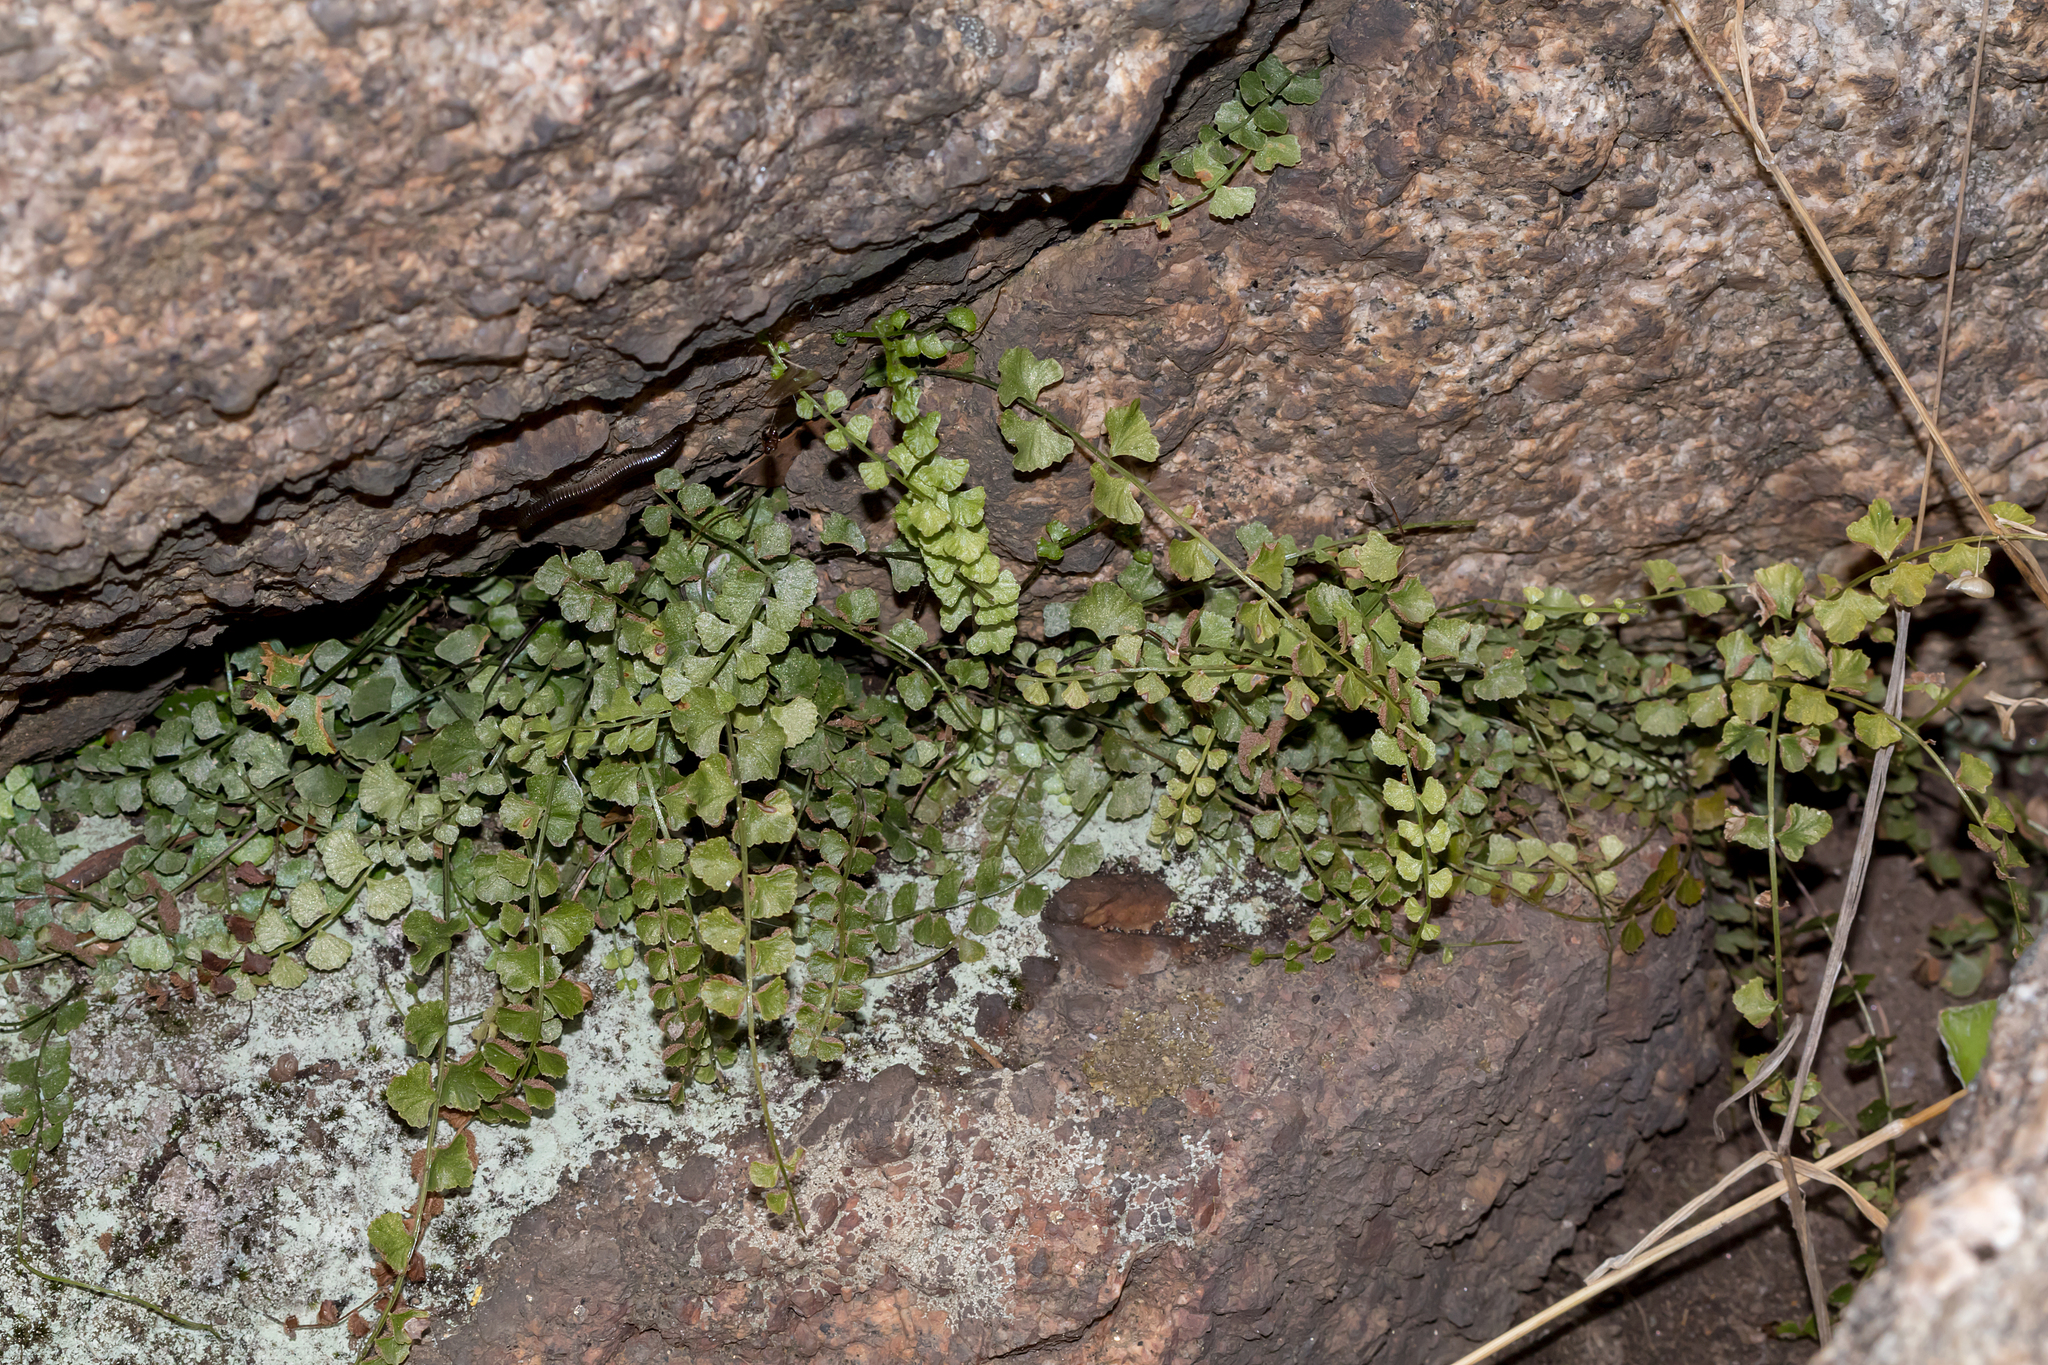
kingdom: Plantae
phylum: Tracheophyta
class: Polypodiopsida
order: Polypodiales
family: Aspleniaceae
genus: Asplenium
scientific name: Asplenium flabellifolium
